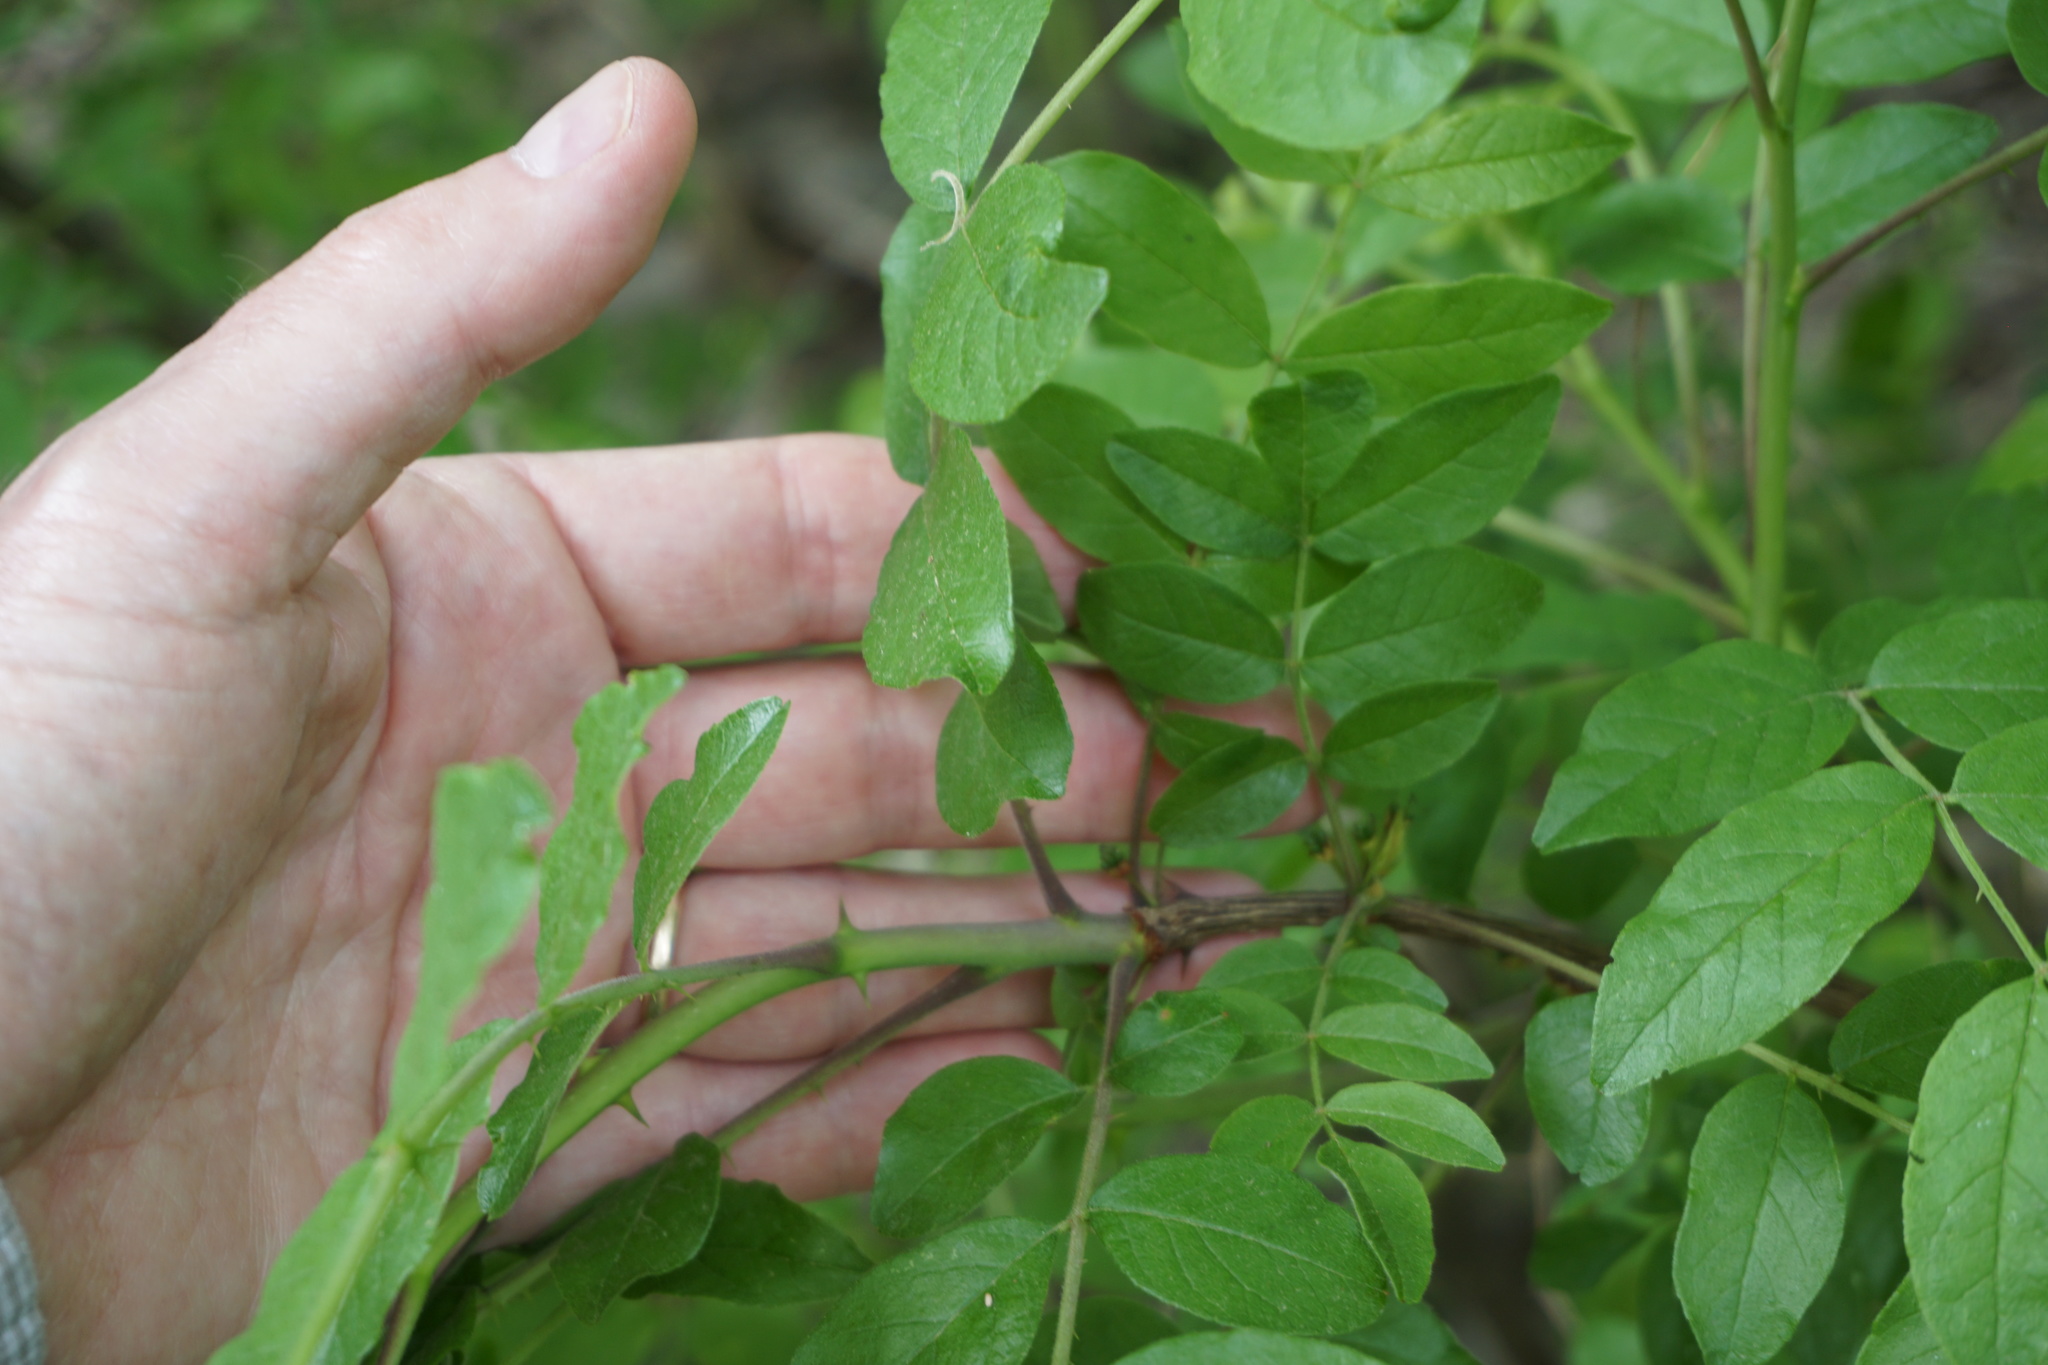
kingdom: Plantae
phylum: Tracheophyta
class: Magnoliopsida
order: Sapindales
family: Rutaceae
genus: Zanthoxylum
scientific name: Zanthoxylum americanum
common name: Northern prickly-ash
